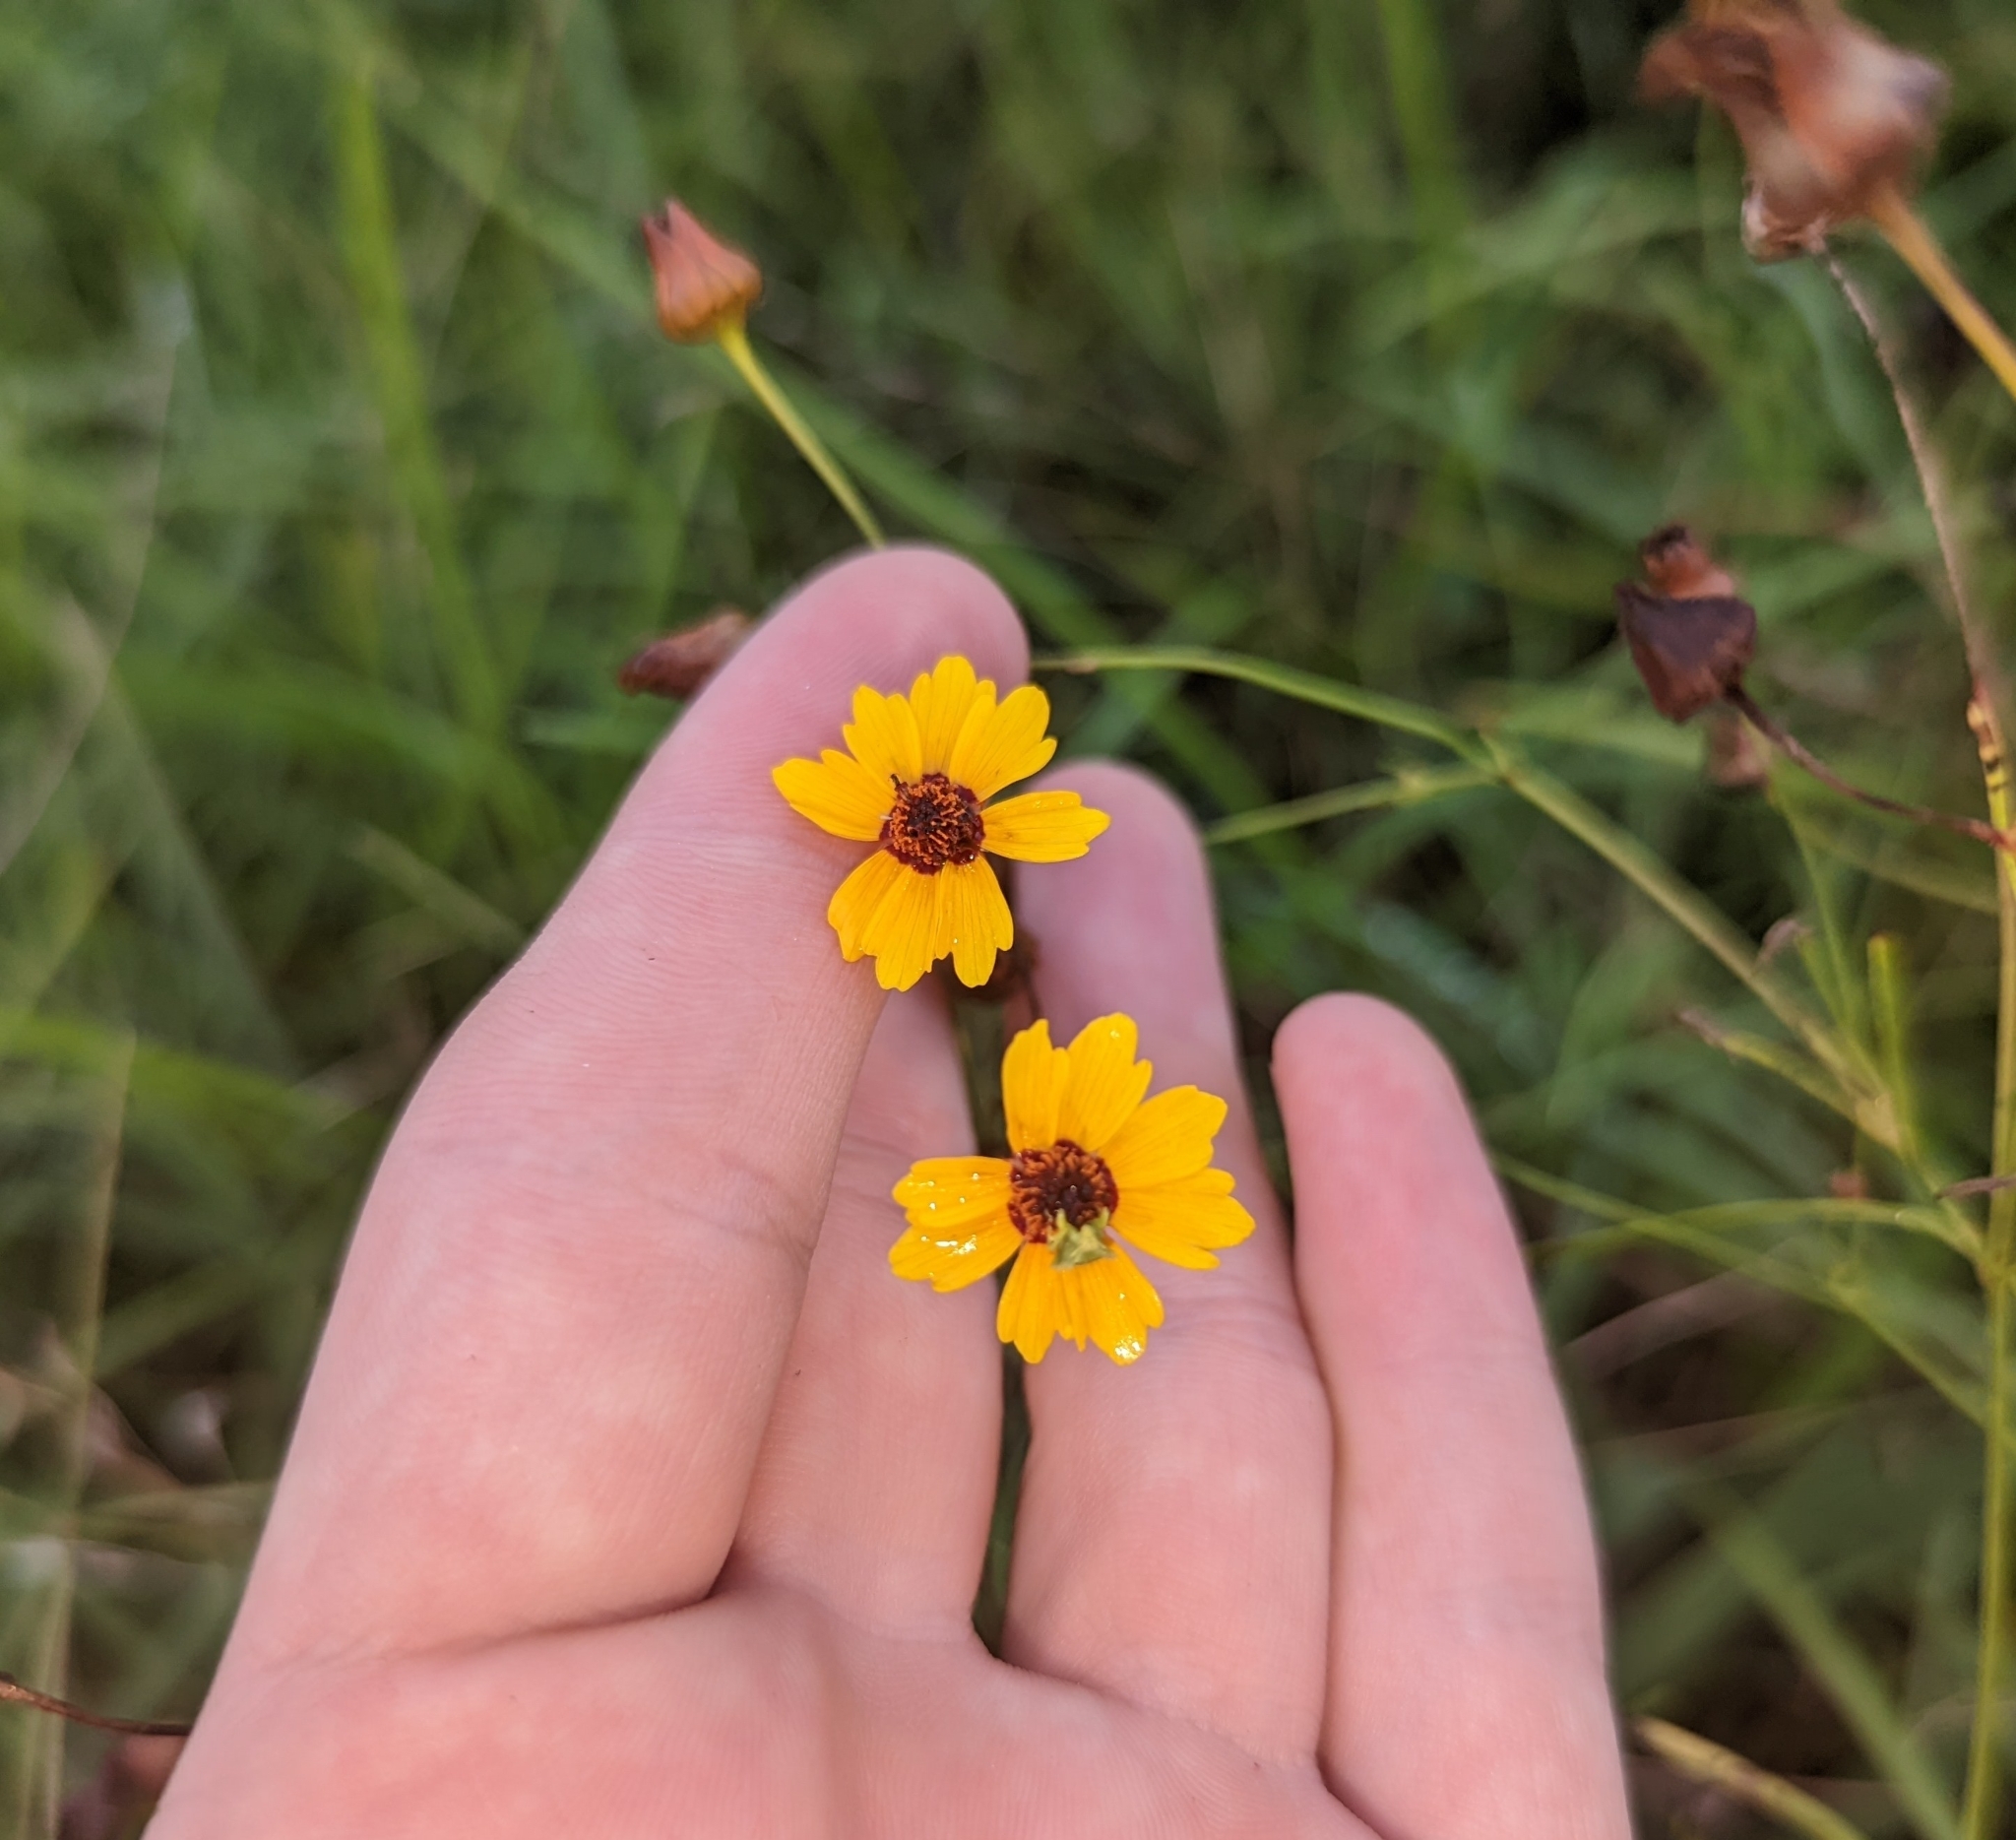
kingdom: Plantae
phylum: Tracheophyta
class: Magnoliopsida
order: Asterales
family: Asteraceae
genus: Coreopsis
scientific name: Coreopsis tinctoria
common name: Garden tickseed
